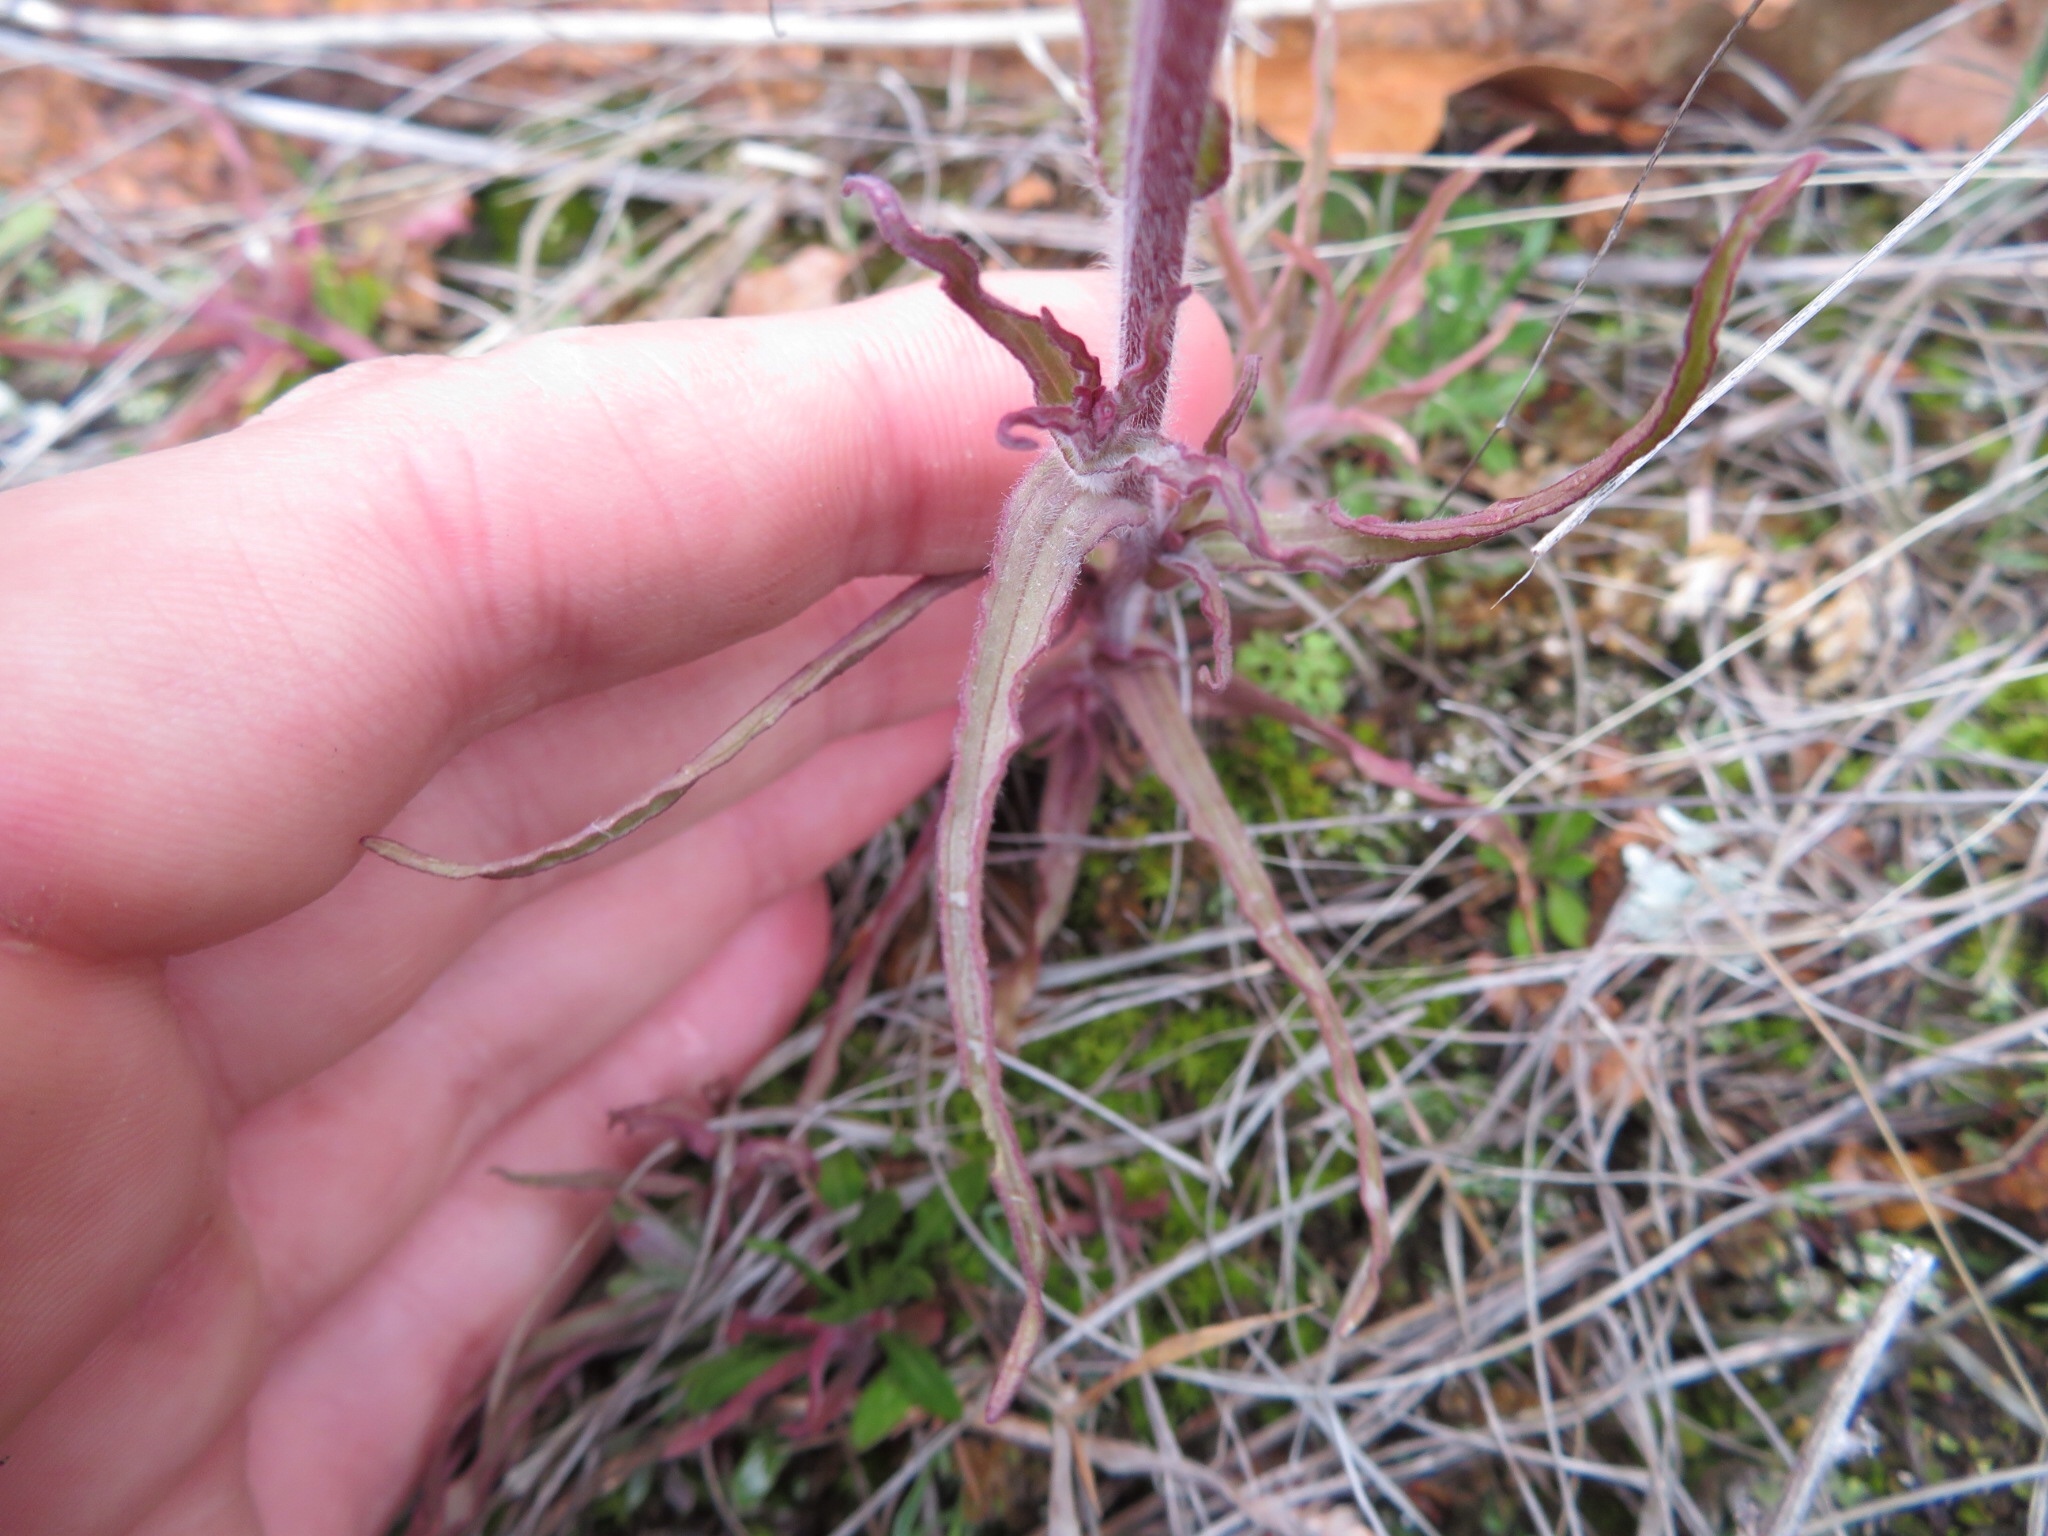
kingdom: Plantae
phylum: Tracheophyta
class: Magnoliopsida
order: Lamiales
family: Orobanchaceae
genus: Castilleja
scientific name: Castilleja indivisa
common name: Texas paintbrush
